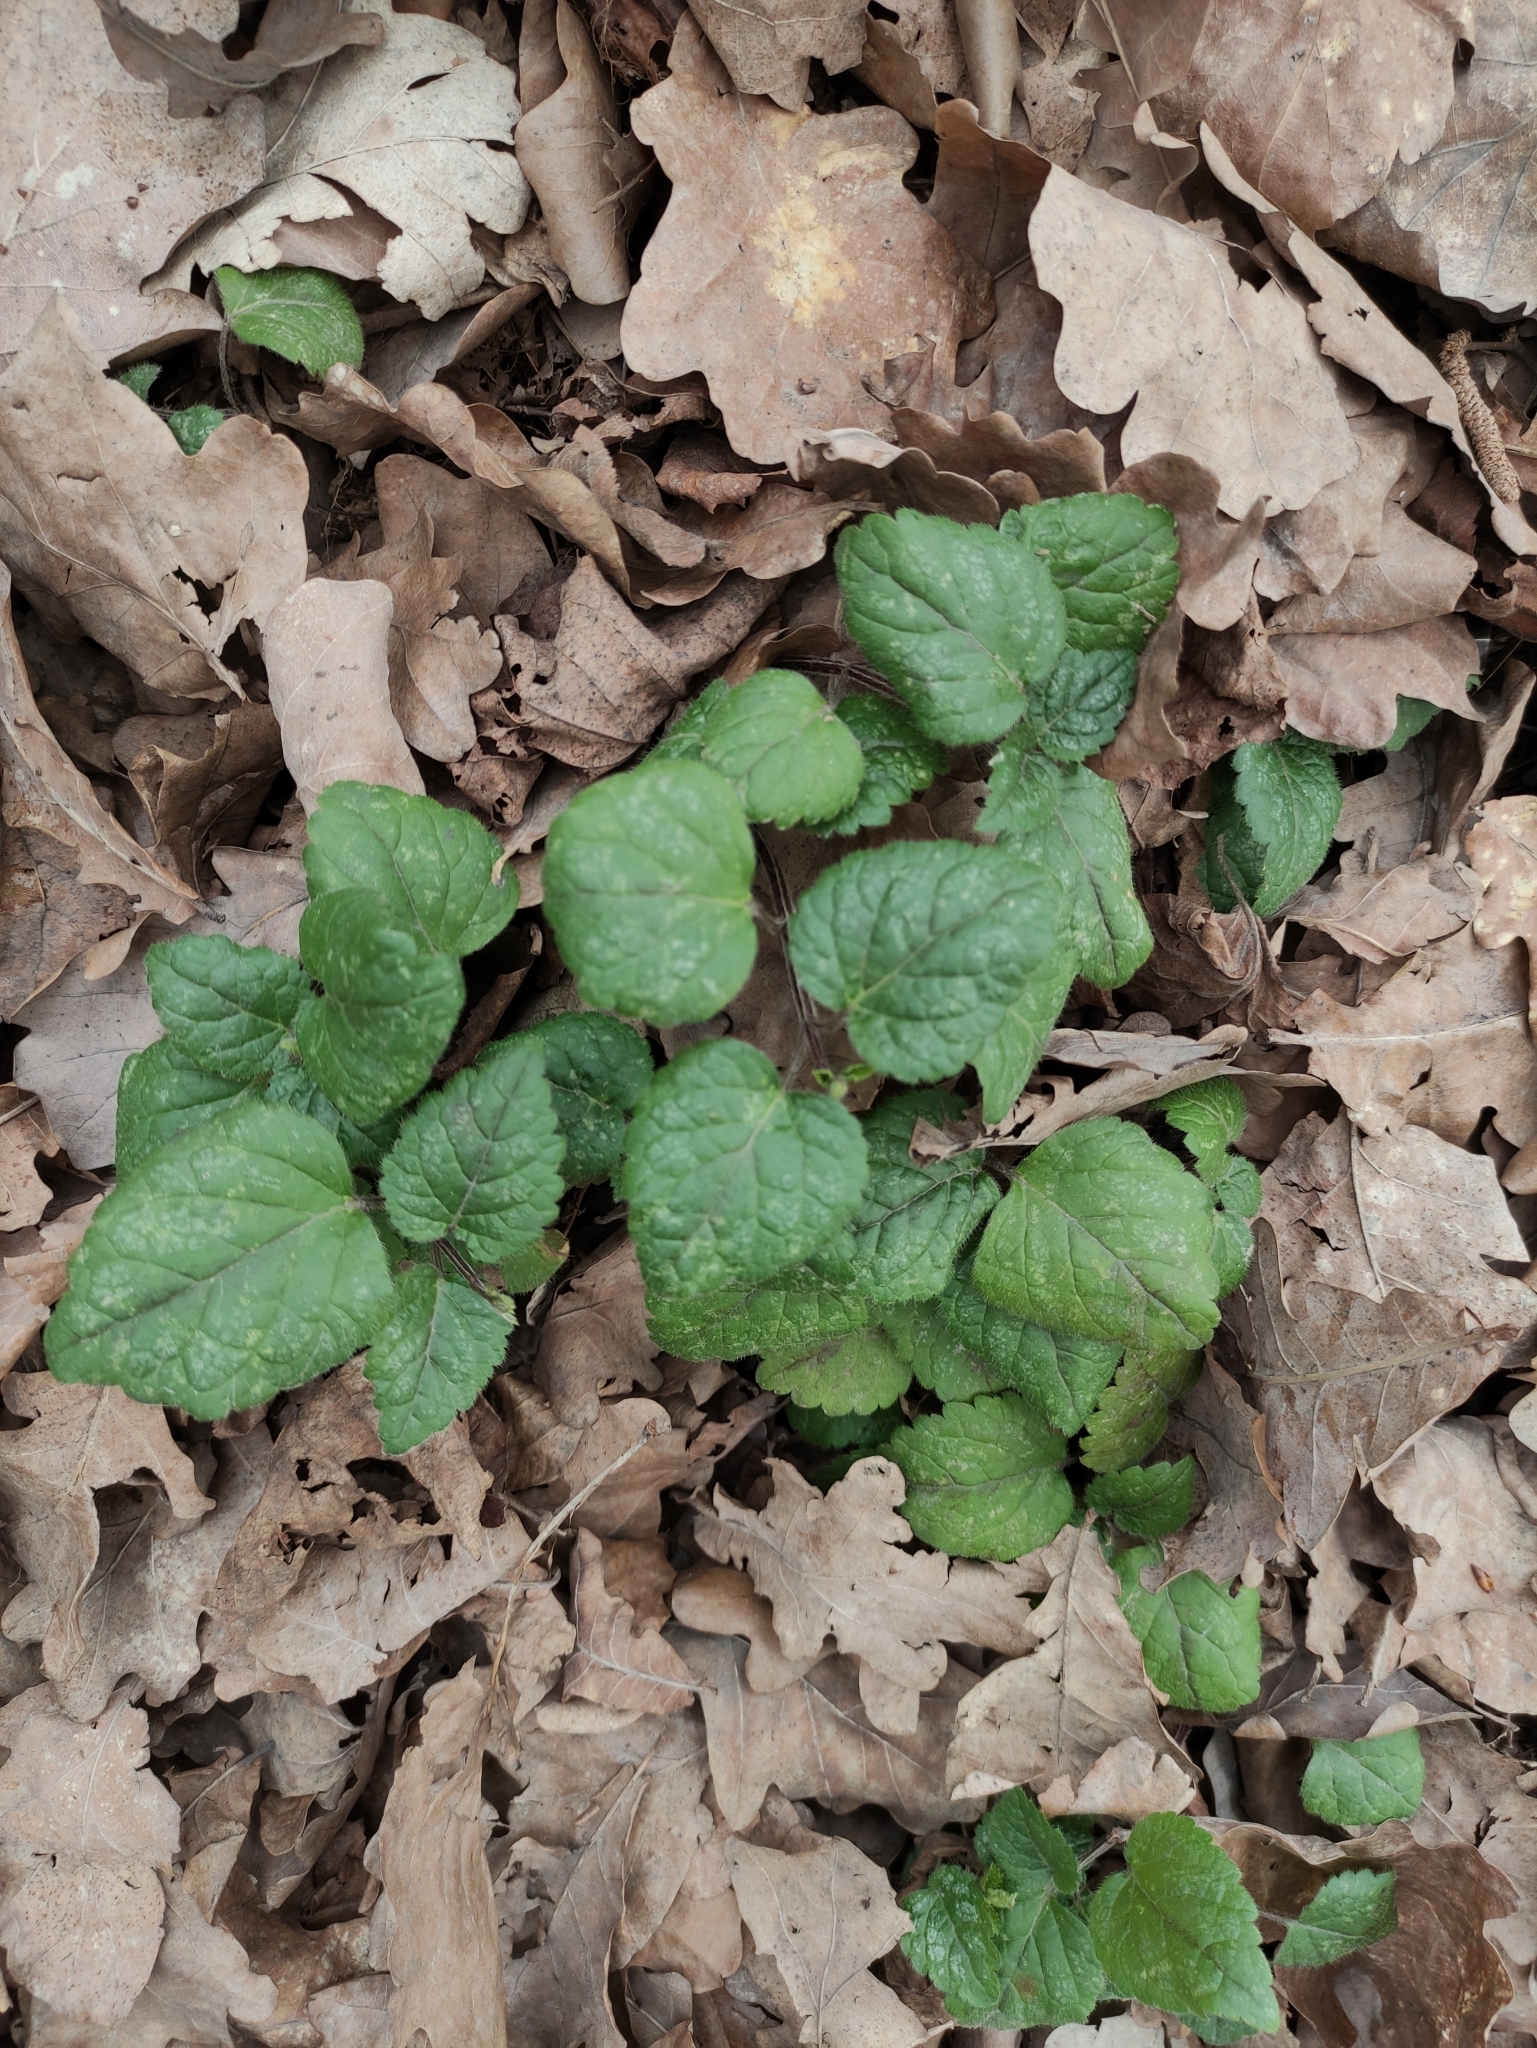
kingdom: Plantae
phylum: Tracheophyta
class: Magnoliopsida
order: Lamiales
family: Lamiaceae
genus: Lamium
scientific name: Lamium galeobdolon
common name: Yellow archangel
